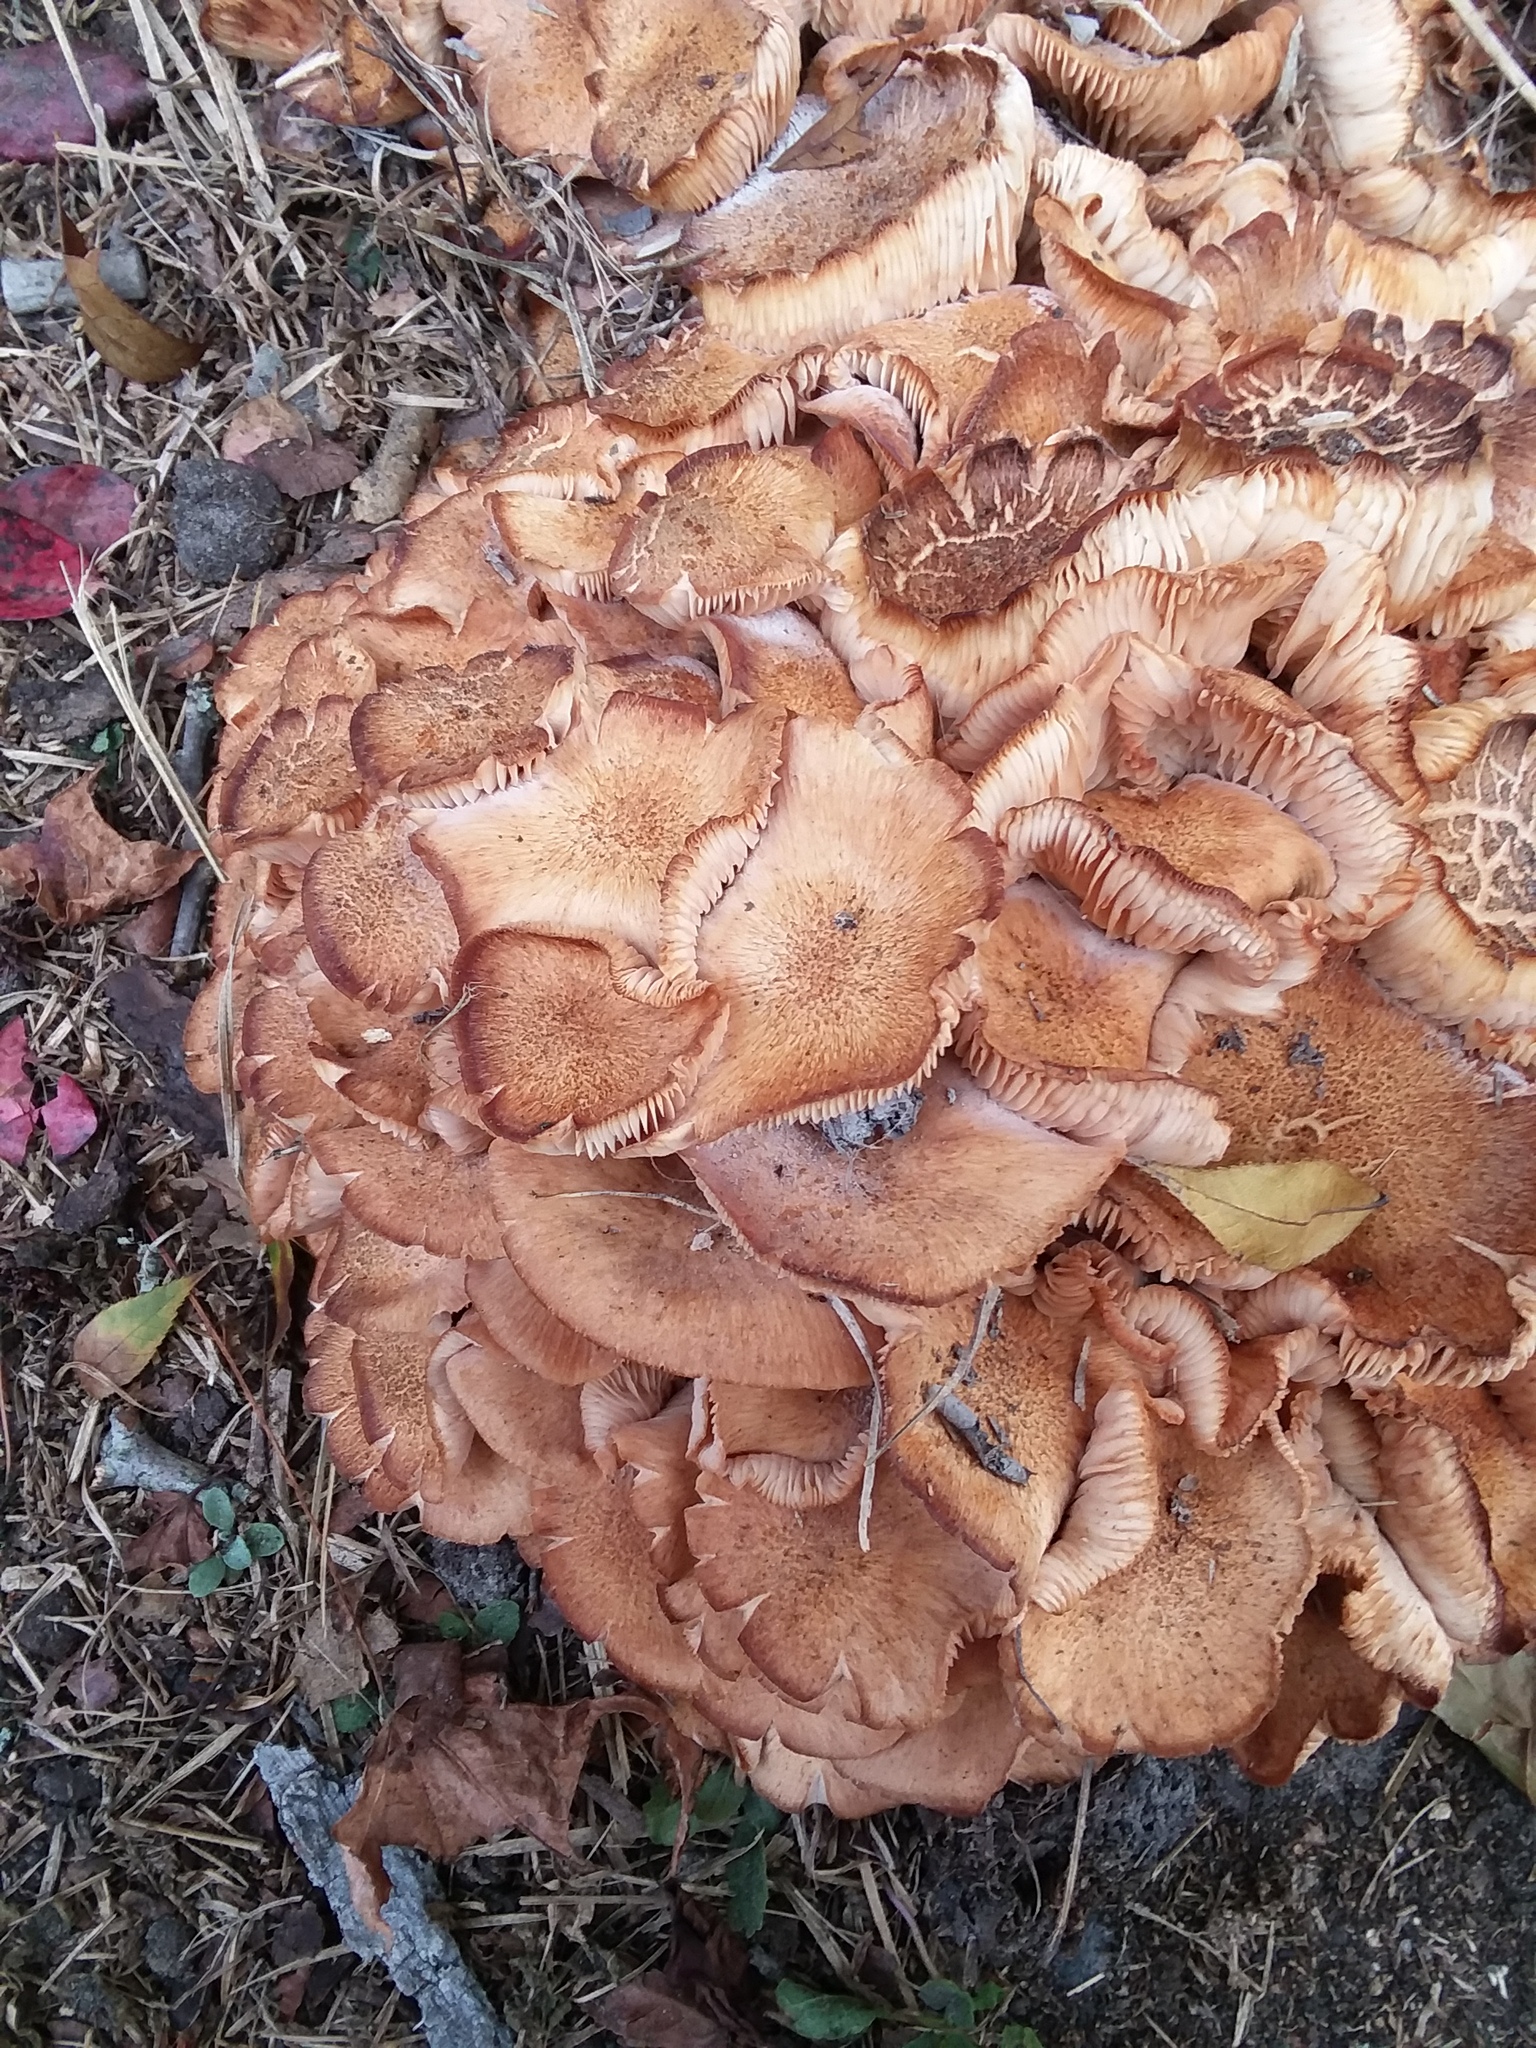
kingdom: Fungi
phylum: Basidiomycota
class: Agaricomycetes
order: Agaricales
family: Physalacriaceae
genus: Desarmillaria
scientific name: Desarmillaria caespitosa
